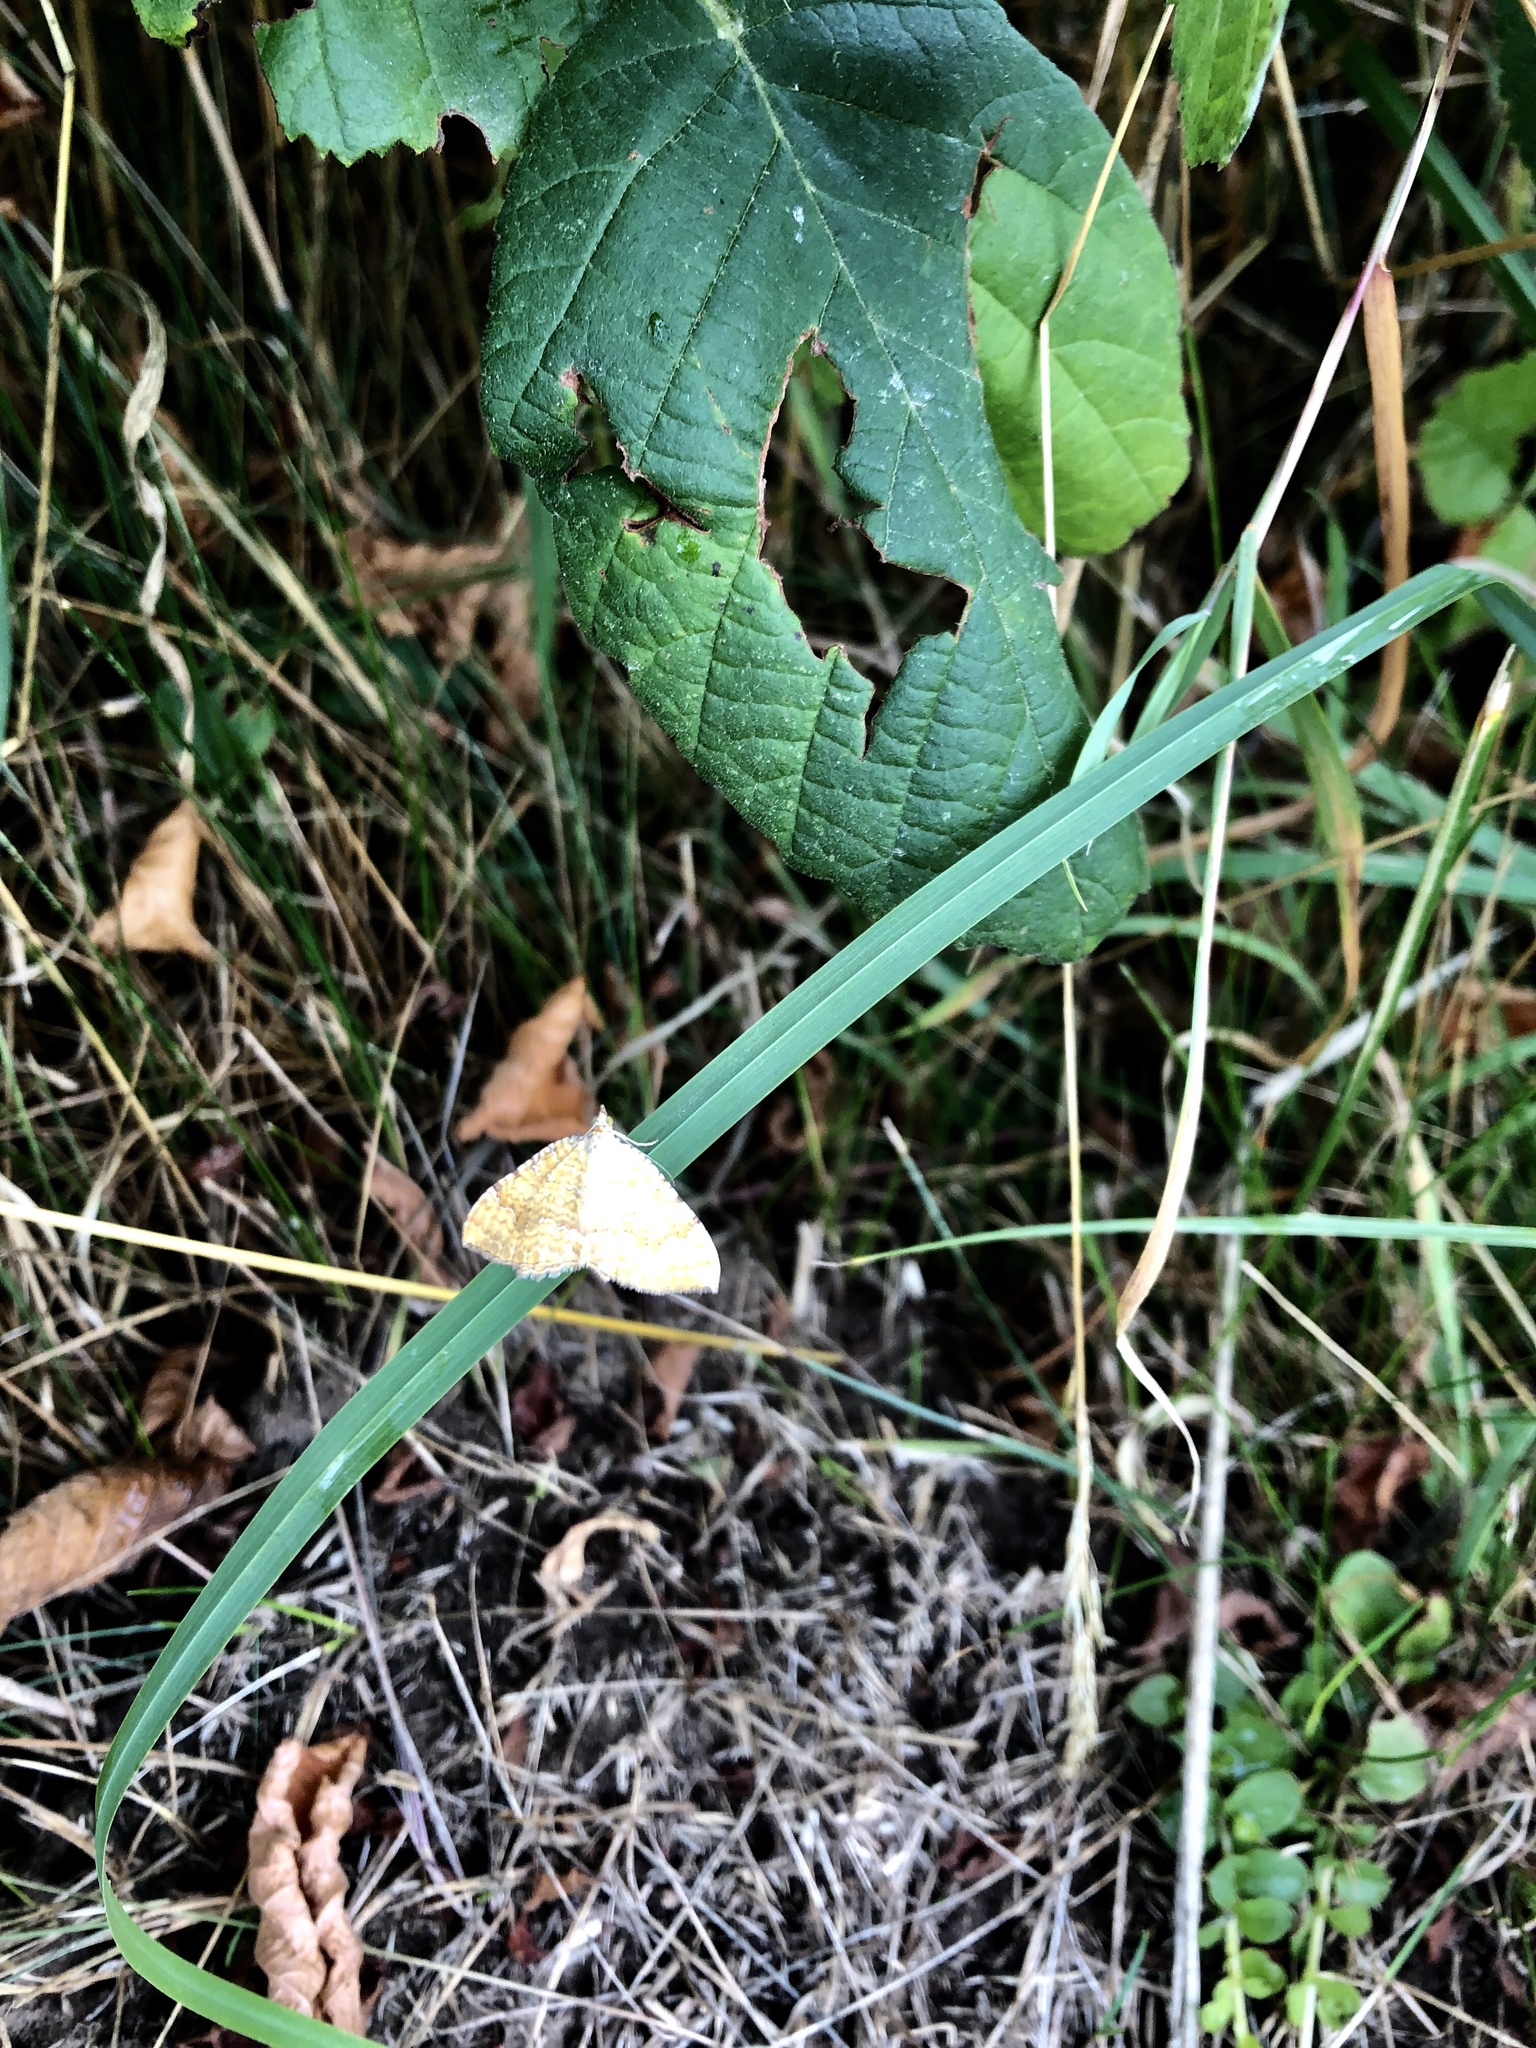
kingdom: Animalia
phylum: Arthropoda
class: Insecta
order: Lepidoptera
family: Geometridae
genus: Camptogramma
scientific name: Camptogramma bilineata
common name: Yellow shell
